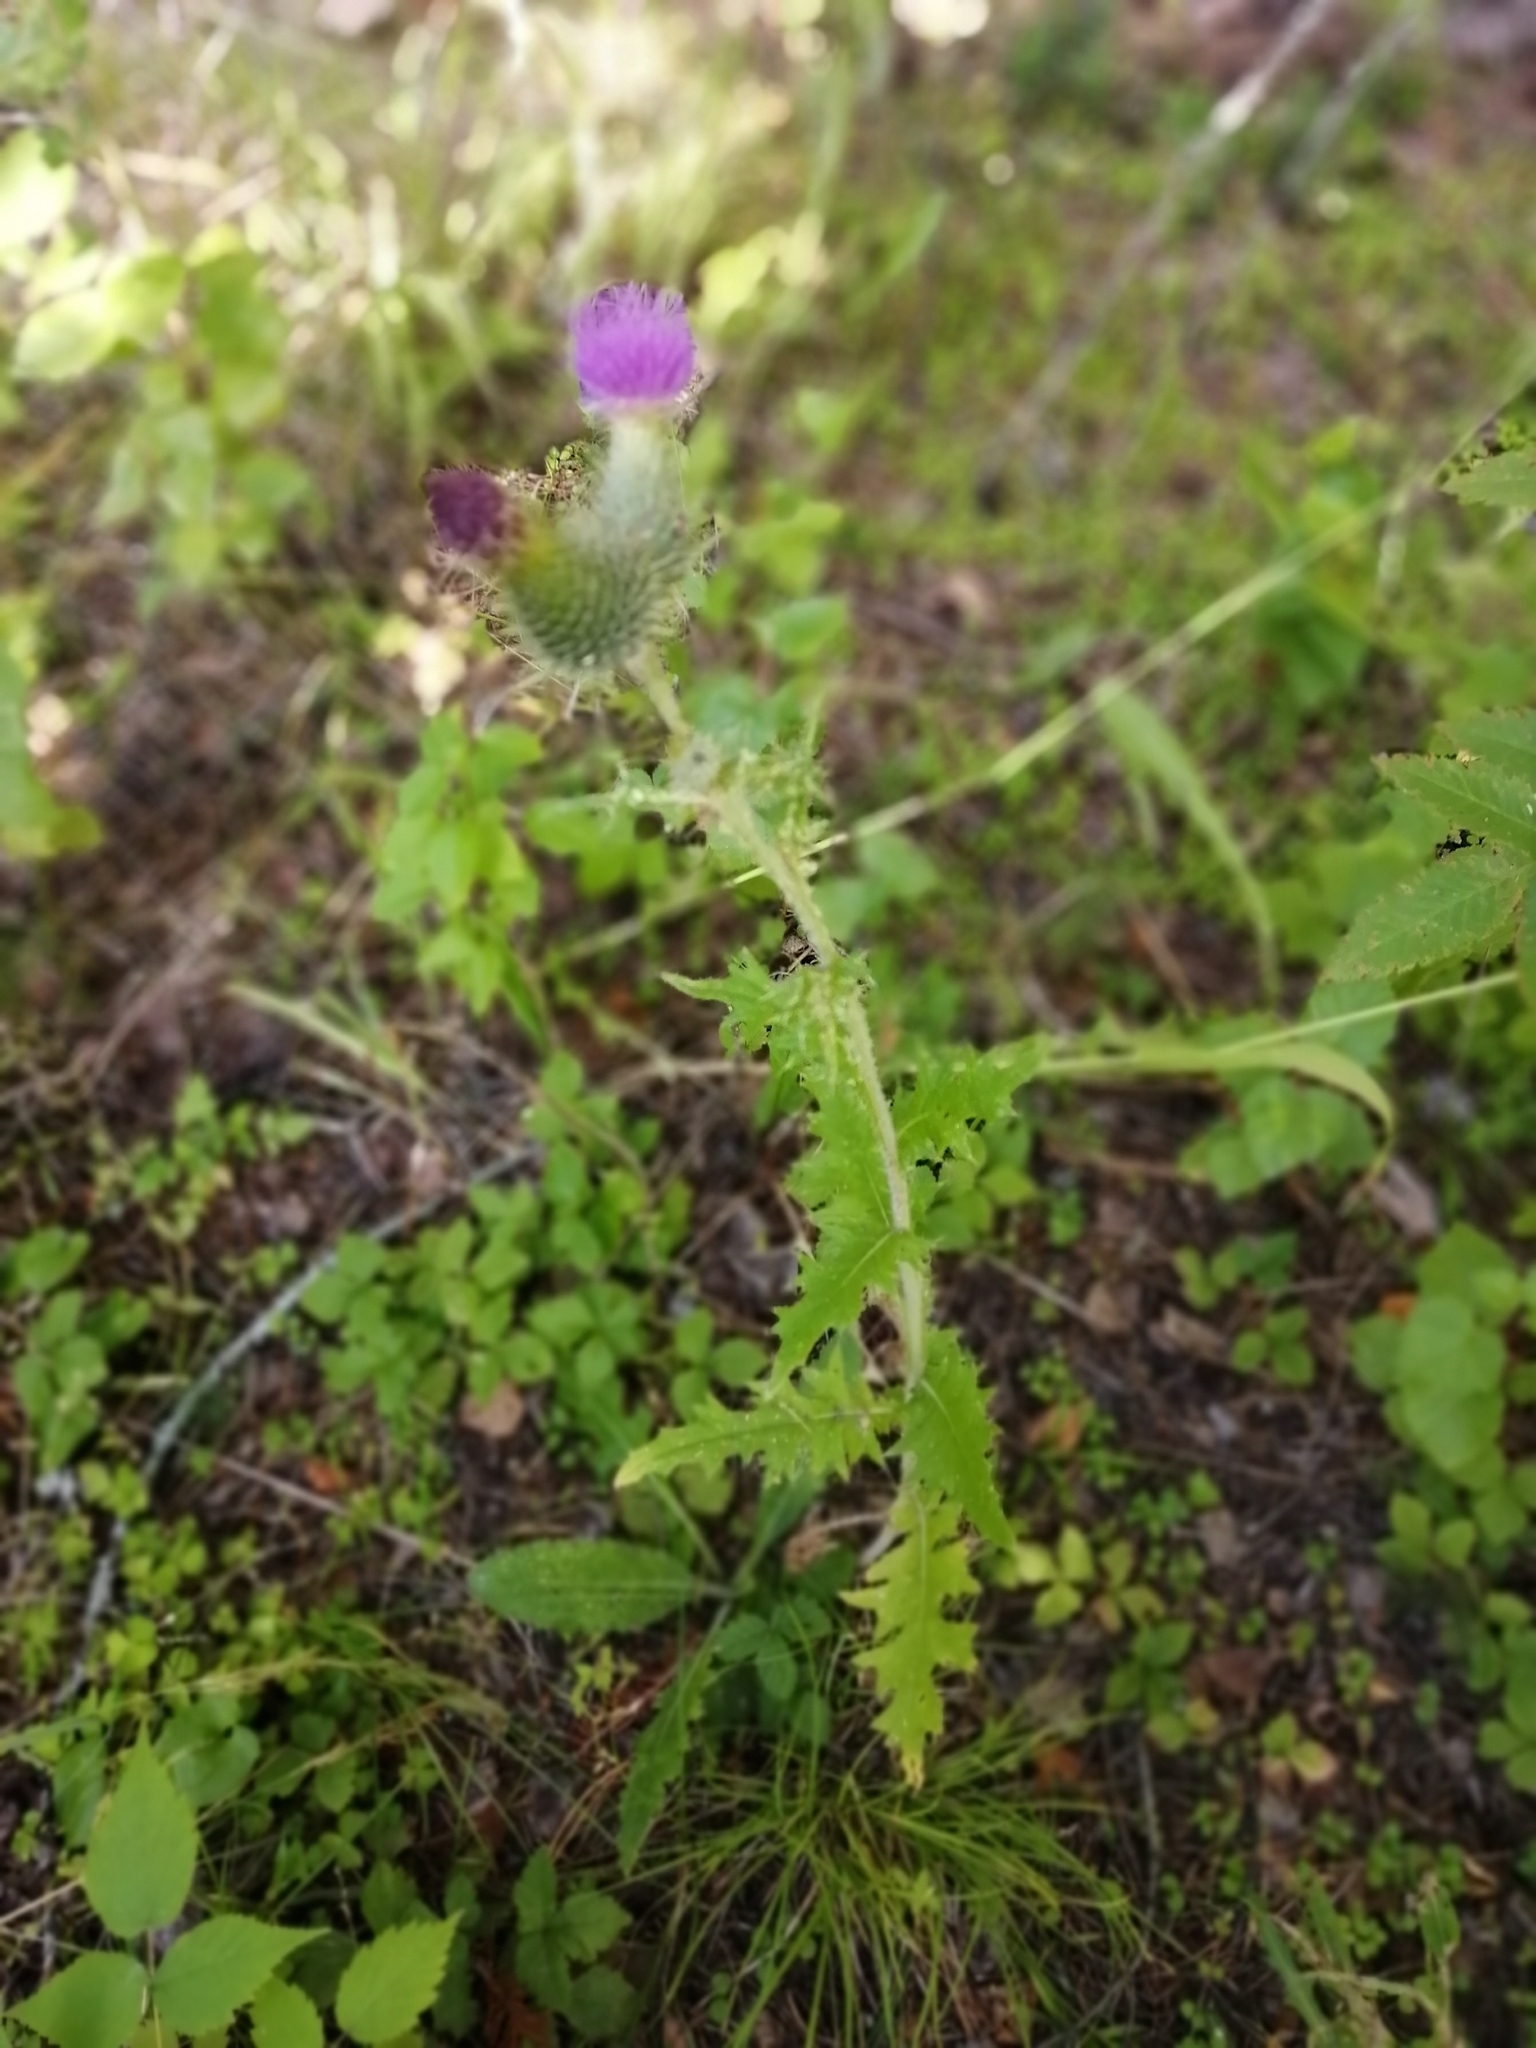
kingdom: Plantae
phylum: Tracheophyta
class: Magnoliopsida
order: Asterales
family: Asteraceae
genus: Cirsium
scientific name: Cirsium vulgare
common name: Bull thistle
